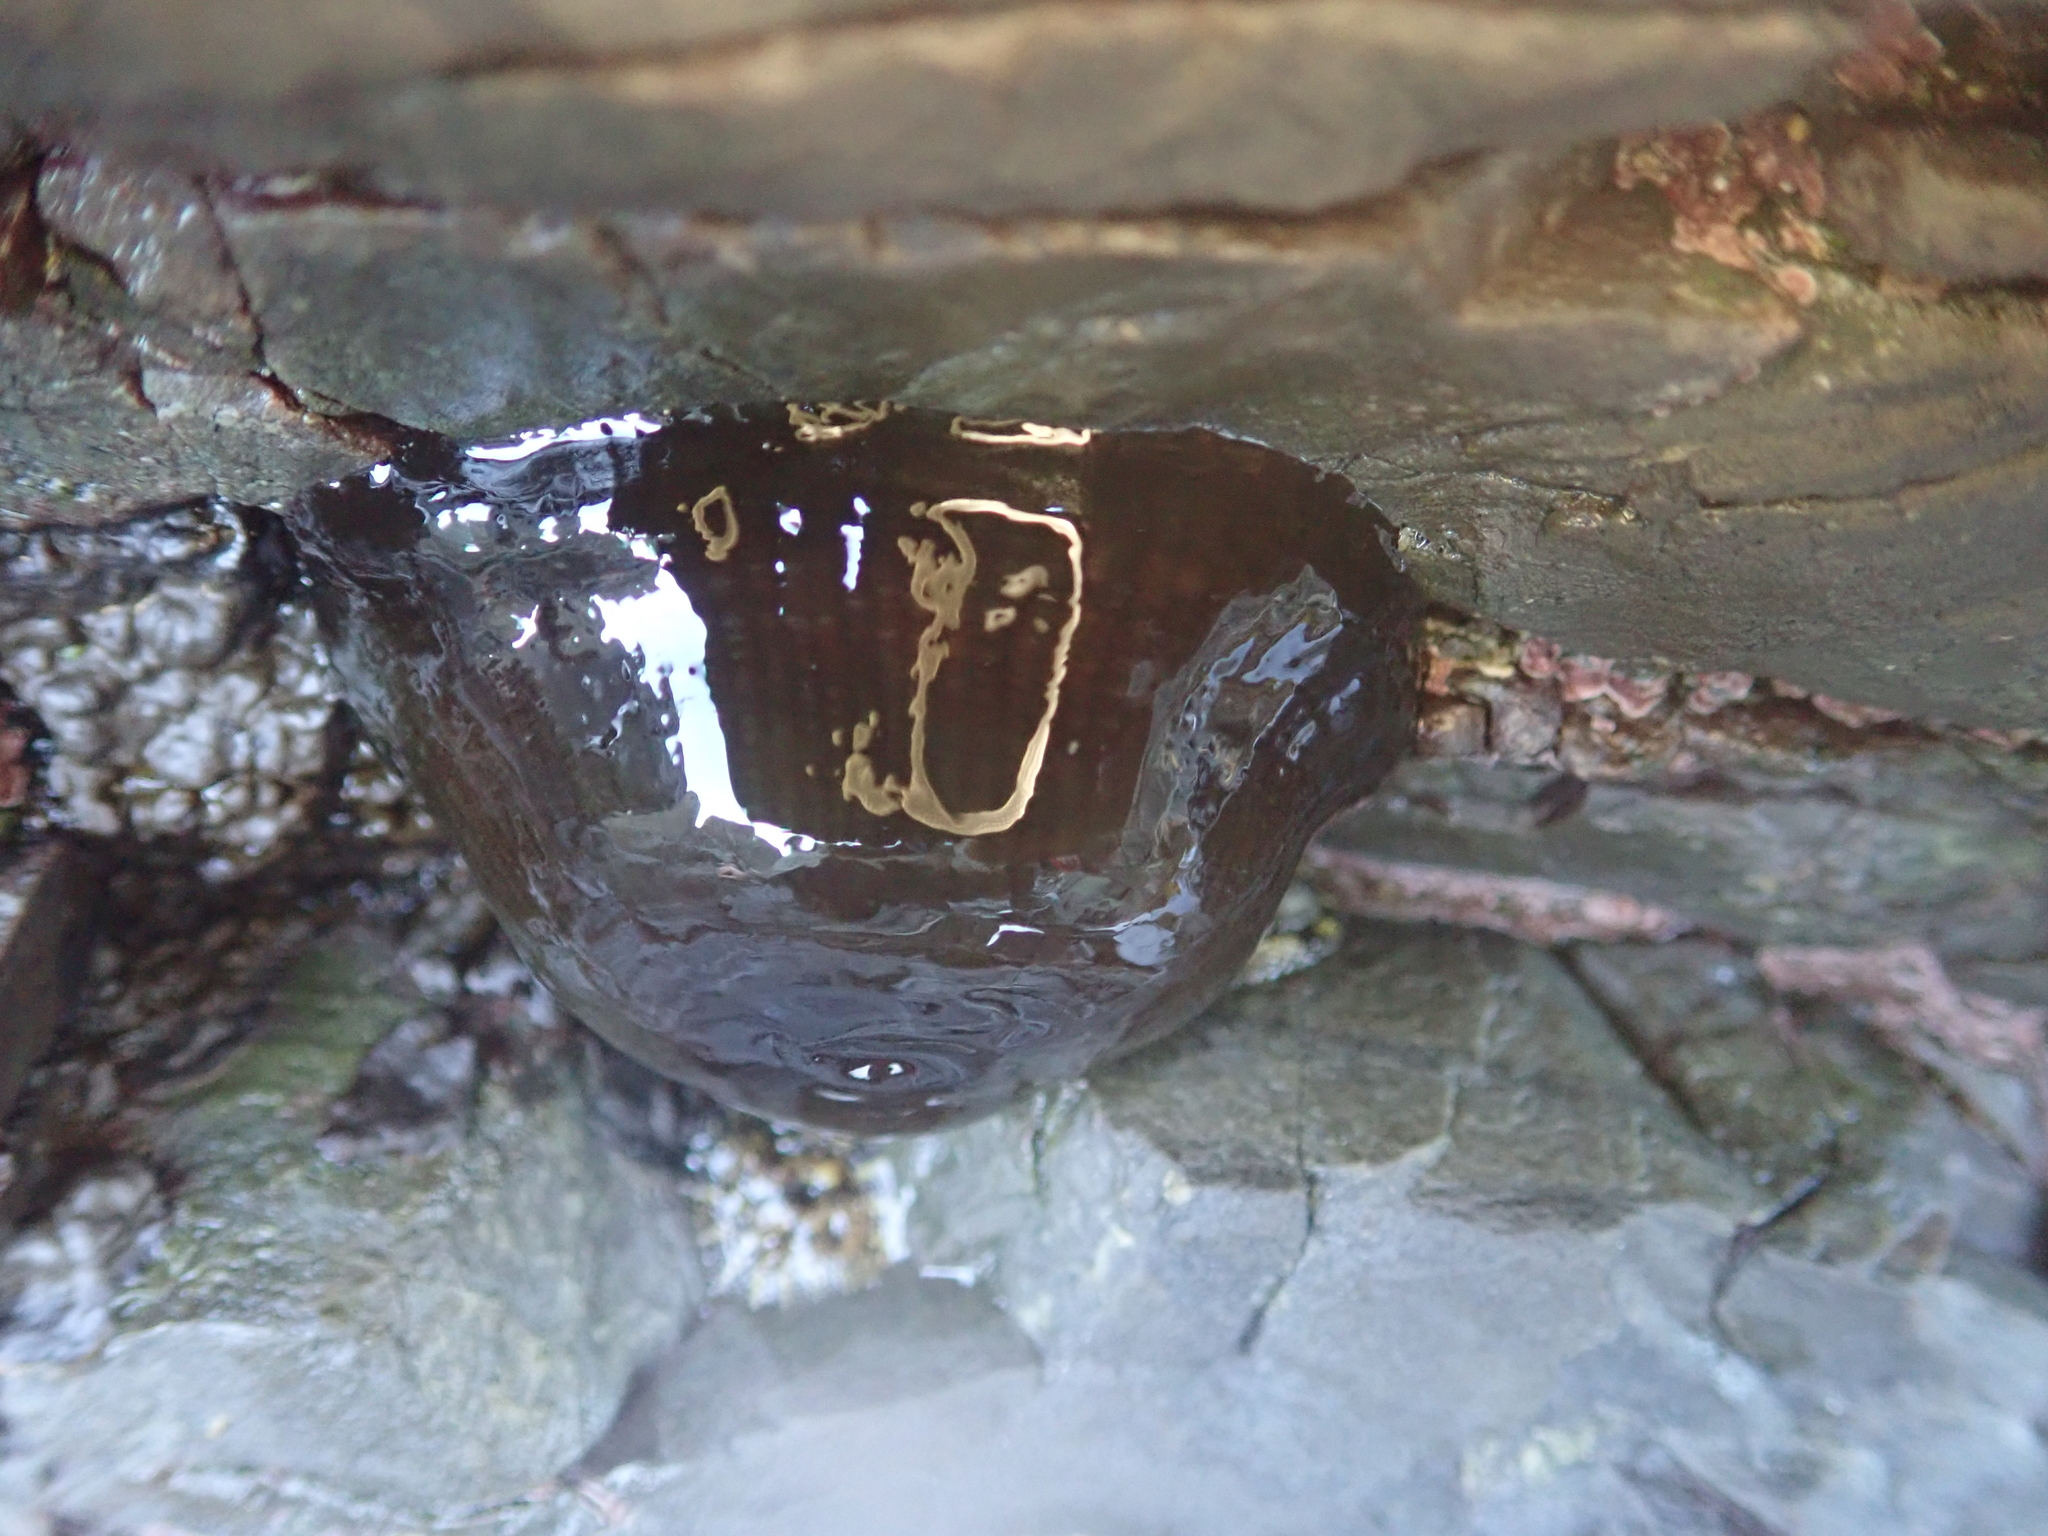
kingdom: Animalia
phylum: Cnidaria
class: Anthozoa
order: Actiniaria
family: Actiniidae
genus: Actinia
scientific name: Actinia tenebrosa
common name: Waratah anemone
